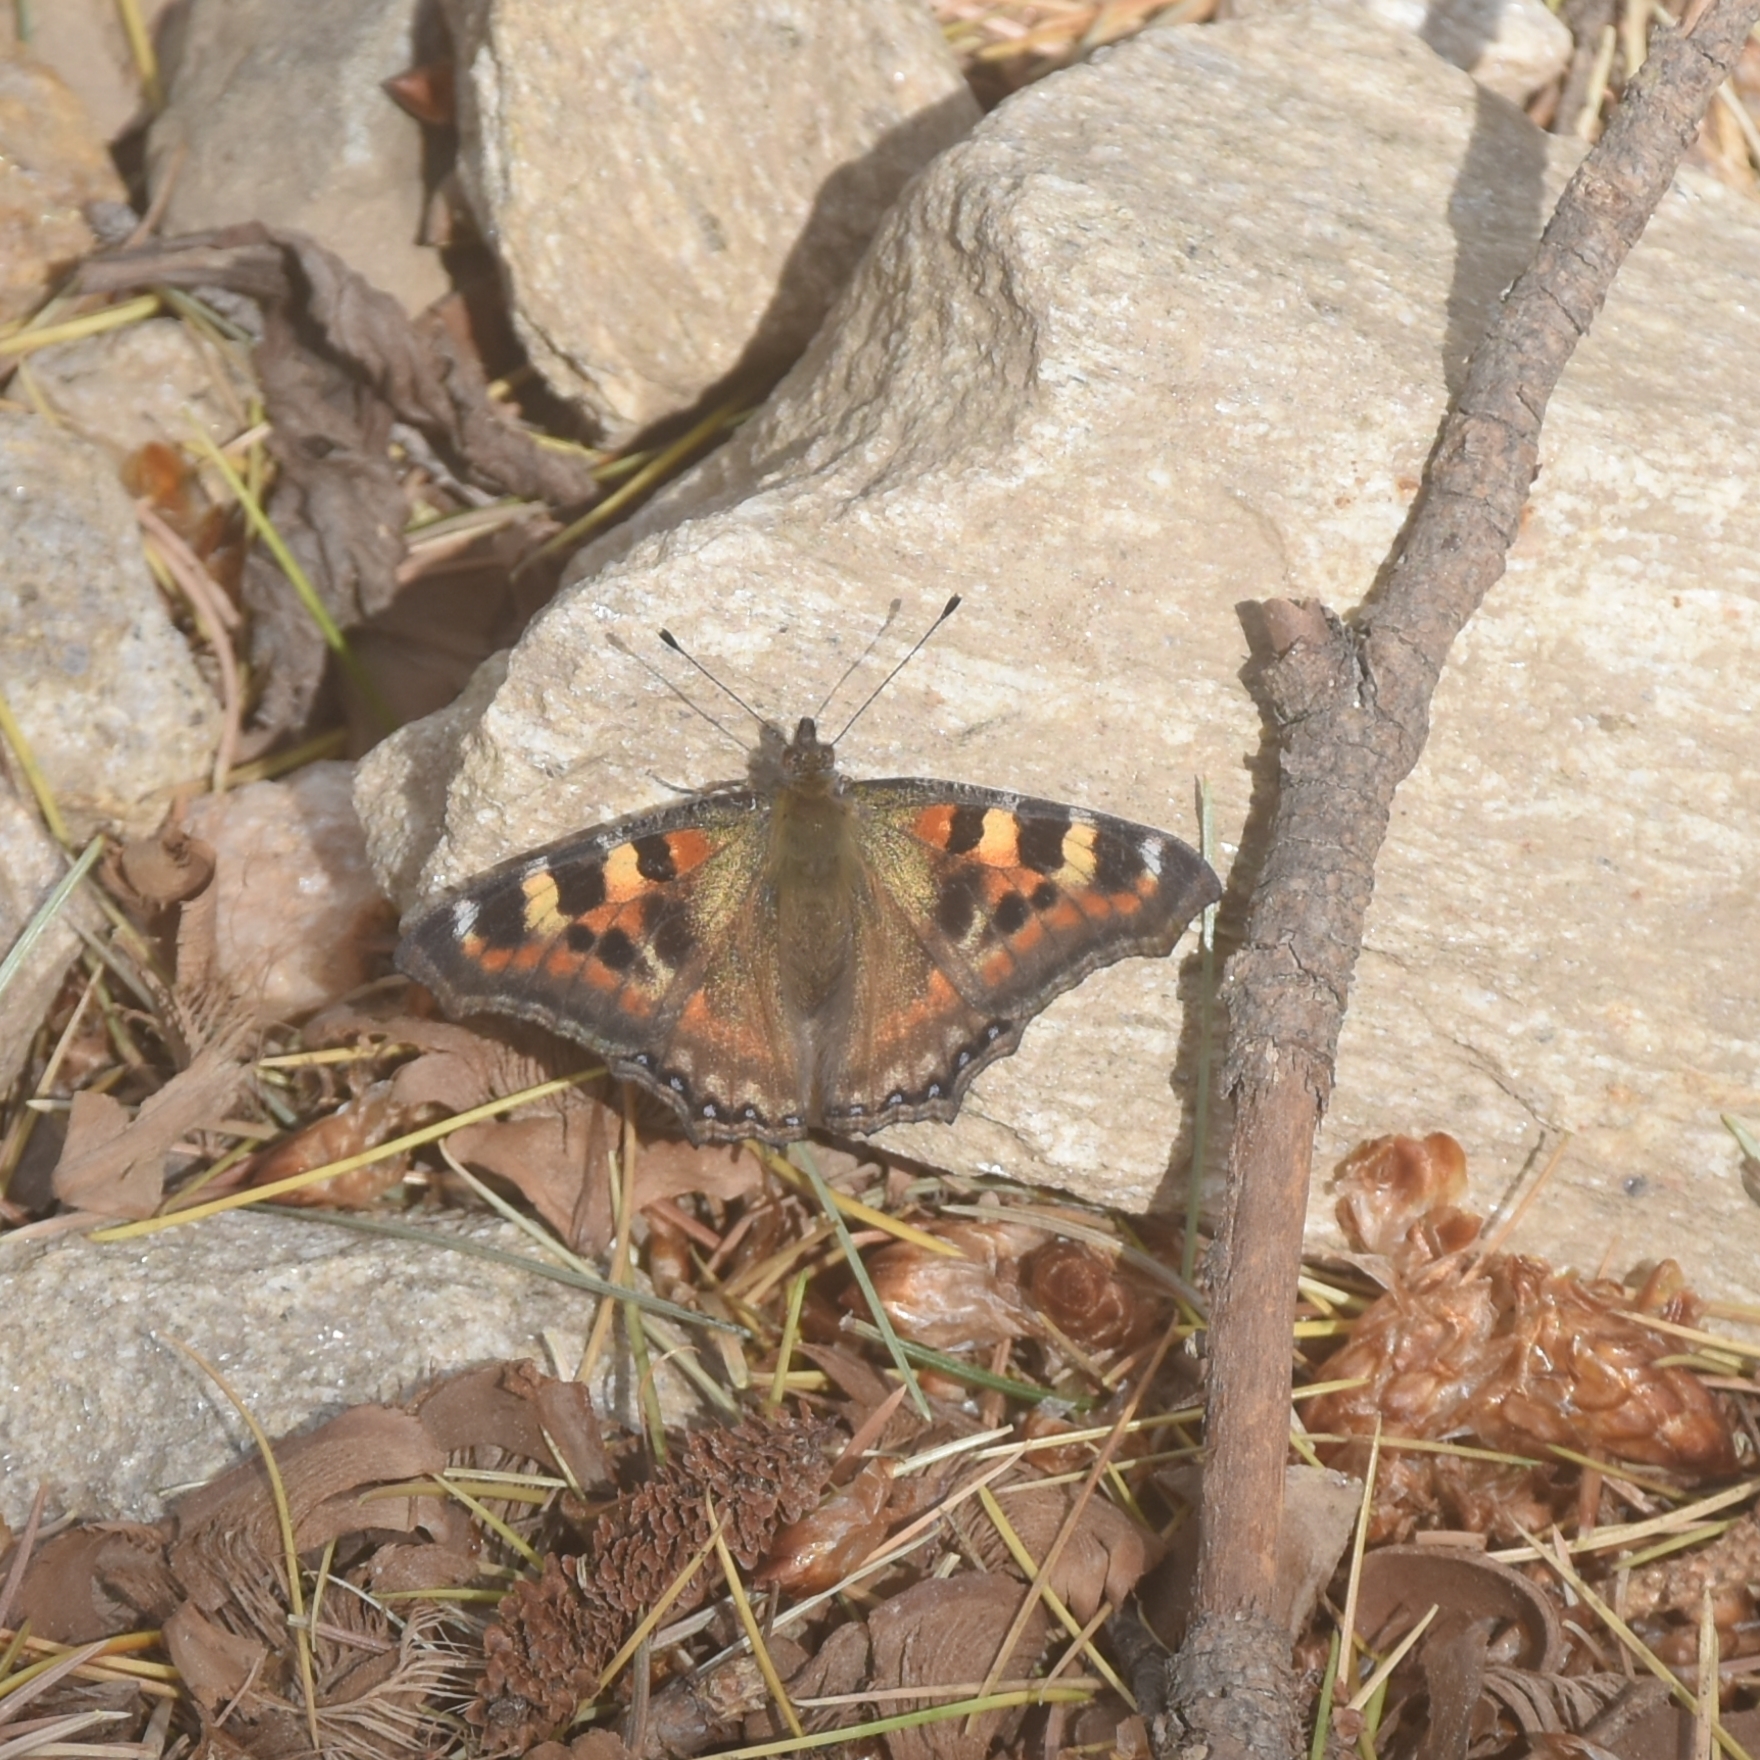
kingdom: Animalia
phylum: Arthropoda
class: Insecta
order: Lepidoptera
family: Nymphalidae
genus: Aglais
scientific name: Aglais caschmirensis
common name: Indian tortoiseshell
